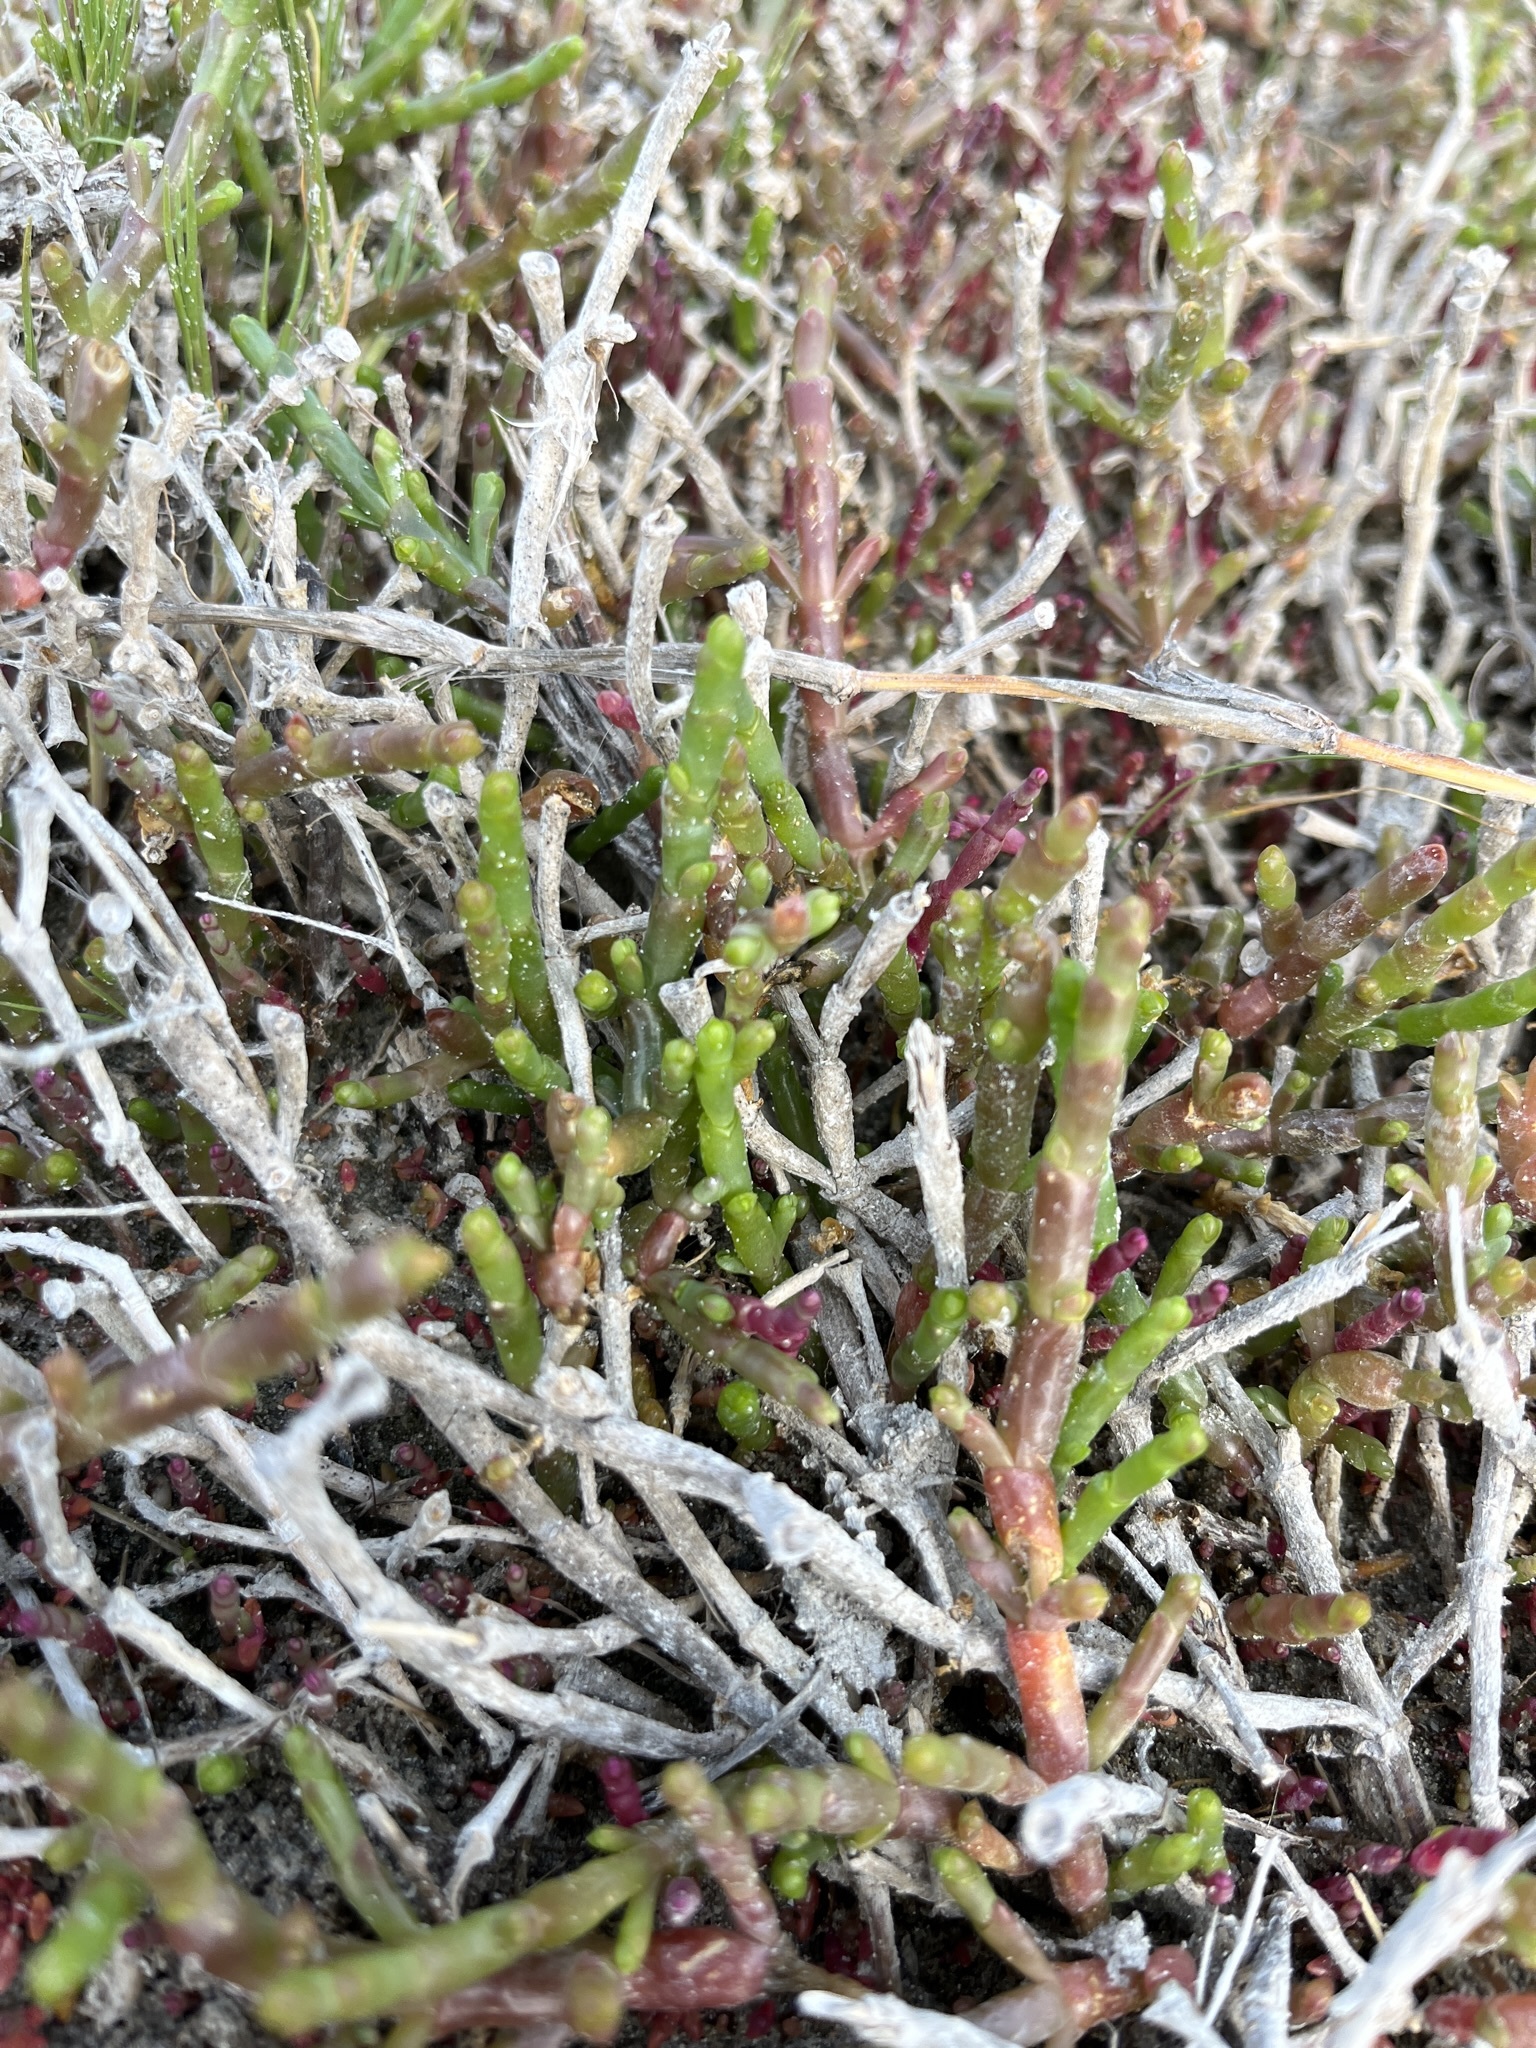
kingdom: Plantae
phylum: Tracheophyta
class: Magnoliopsida
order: Caryophyllales
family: Amaranthaceae
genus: Salicornia
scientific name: Salicornia natalensis
